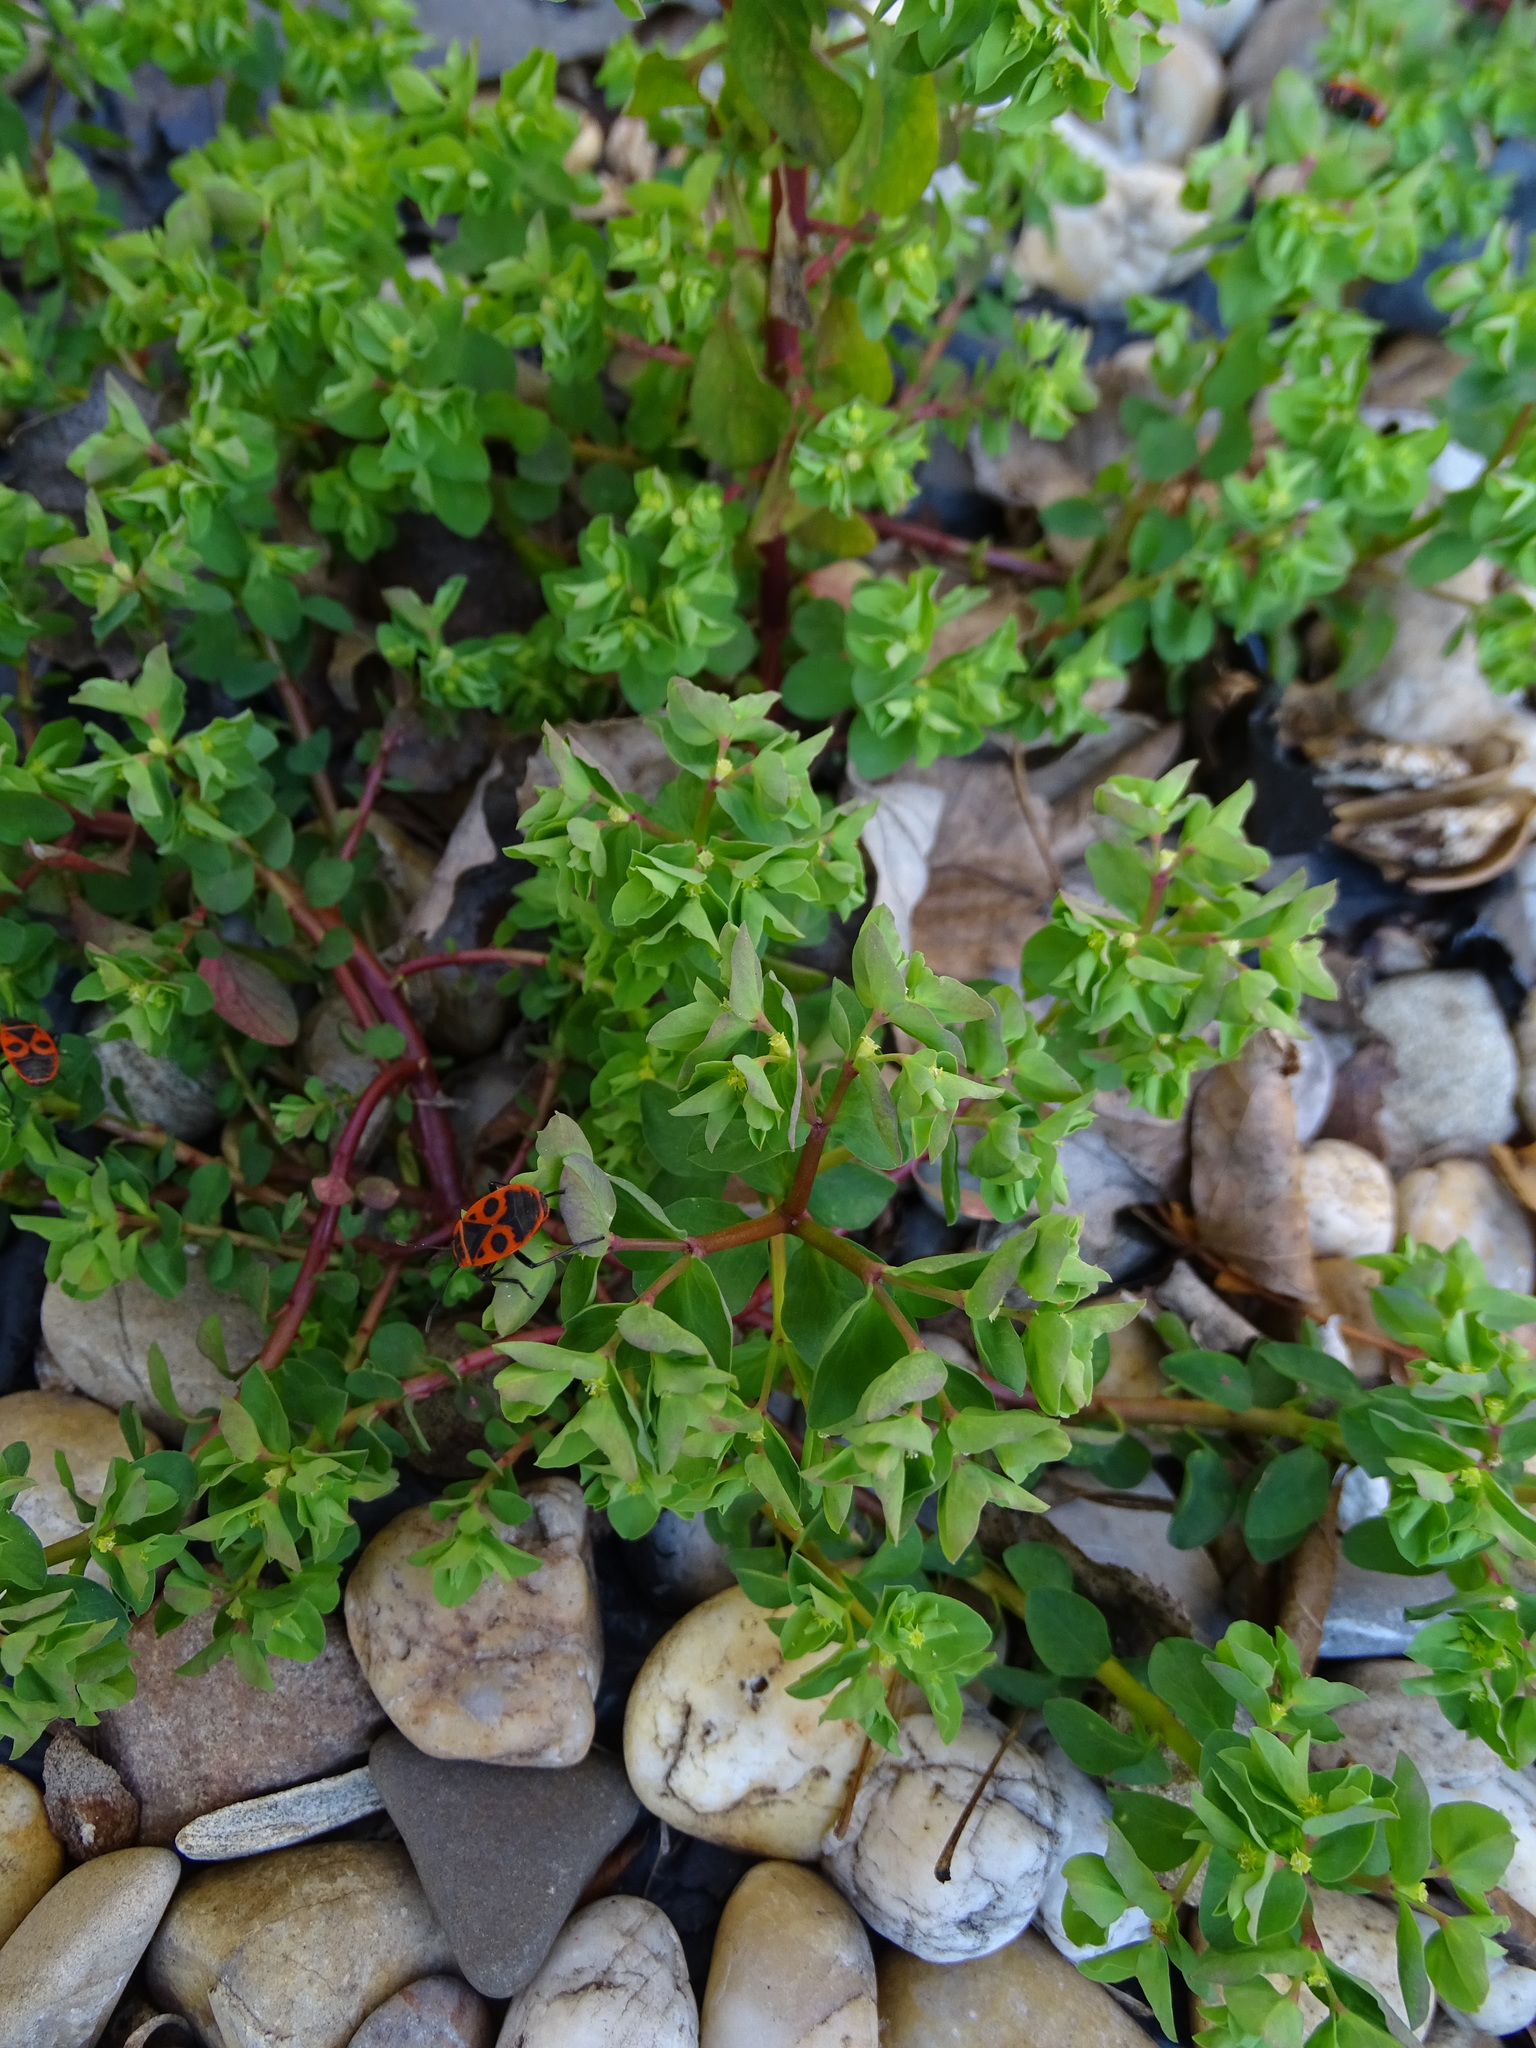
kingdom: Plantae
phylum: Tracheophyta
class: Magnoliopsida
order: Malpighiales
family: Euphorbiaceae
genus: Euphorbia
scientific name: Euphorbia peplus
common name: Petty spurge
